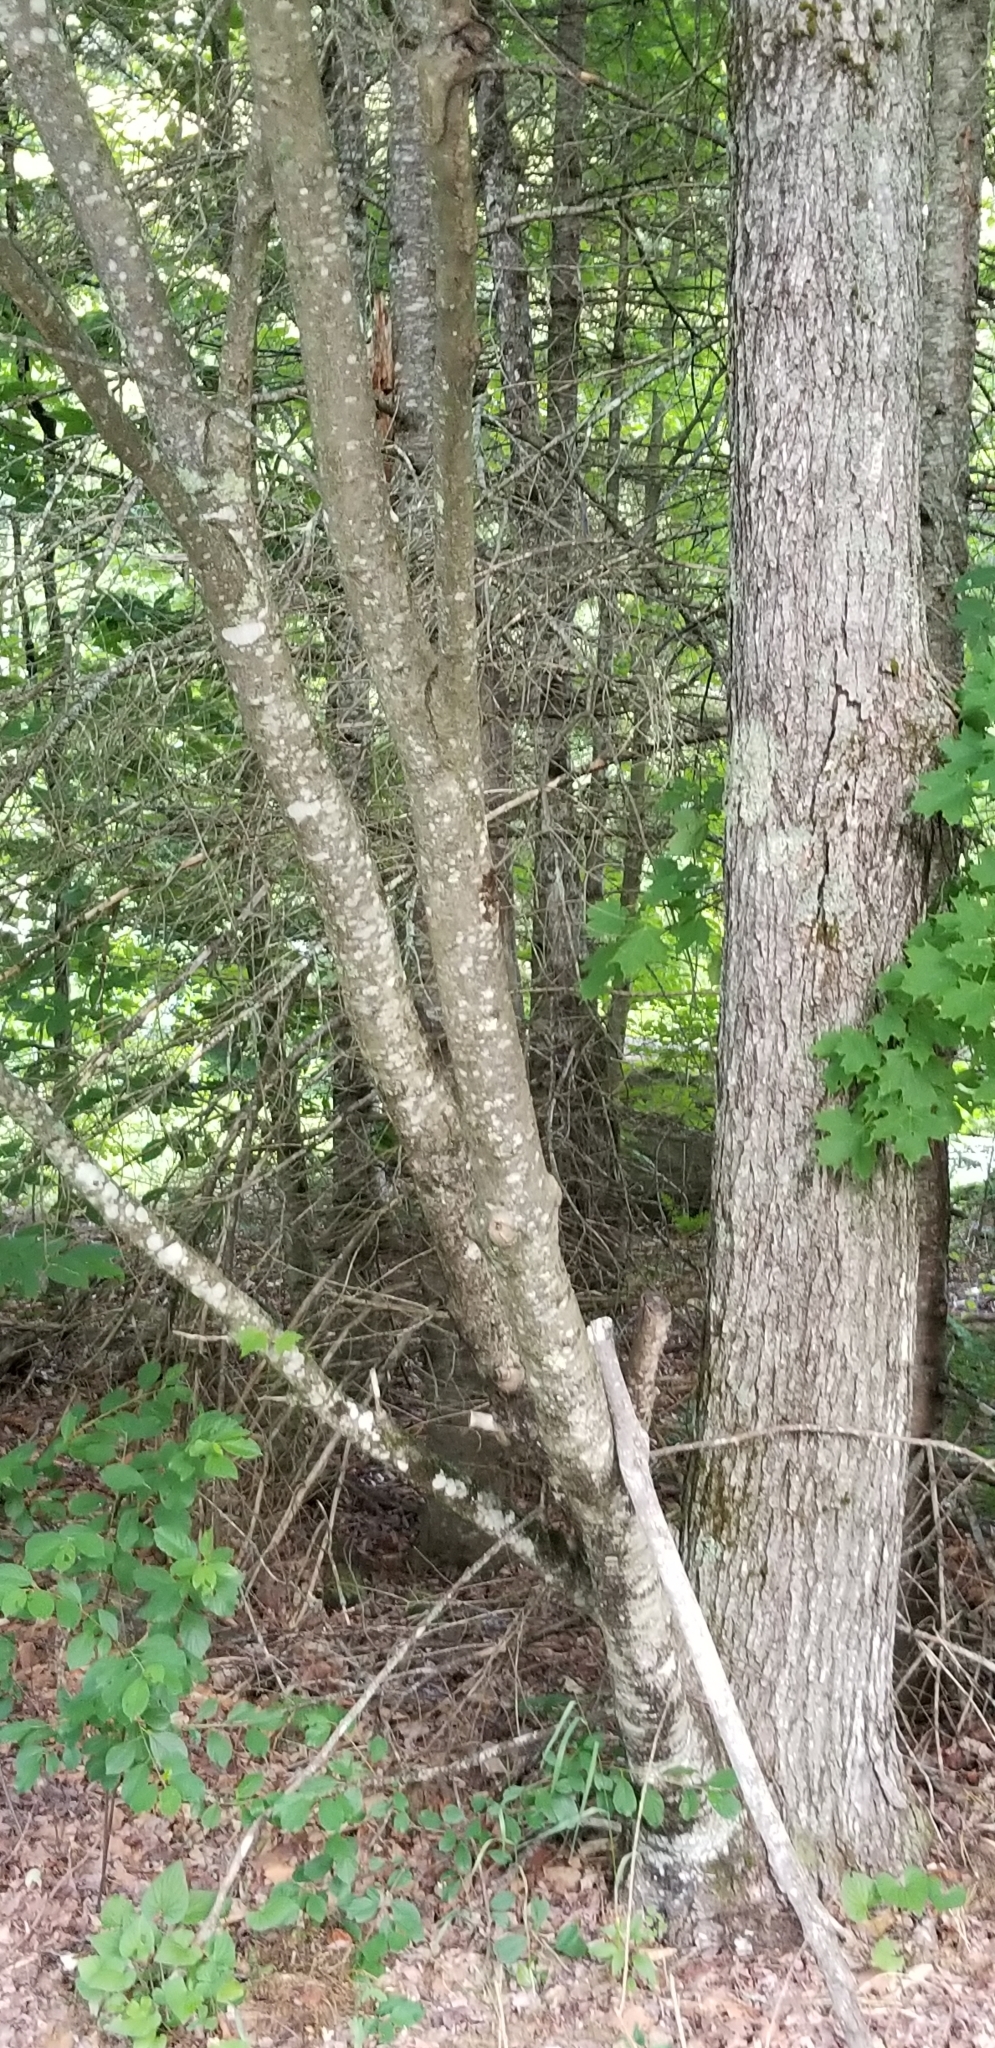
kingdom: Plantae
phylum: Tracheophyta
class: Magnoliopsida
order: Sapindales
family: Sapindaceae
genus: Acer
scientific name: Acer rubrum
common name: Red maple
